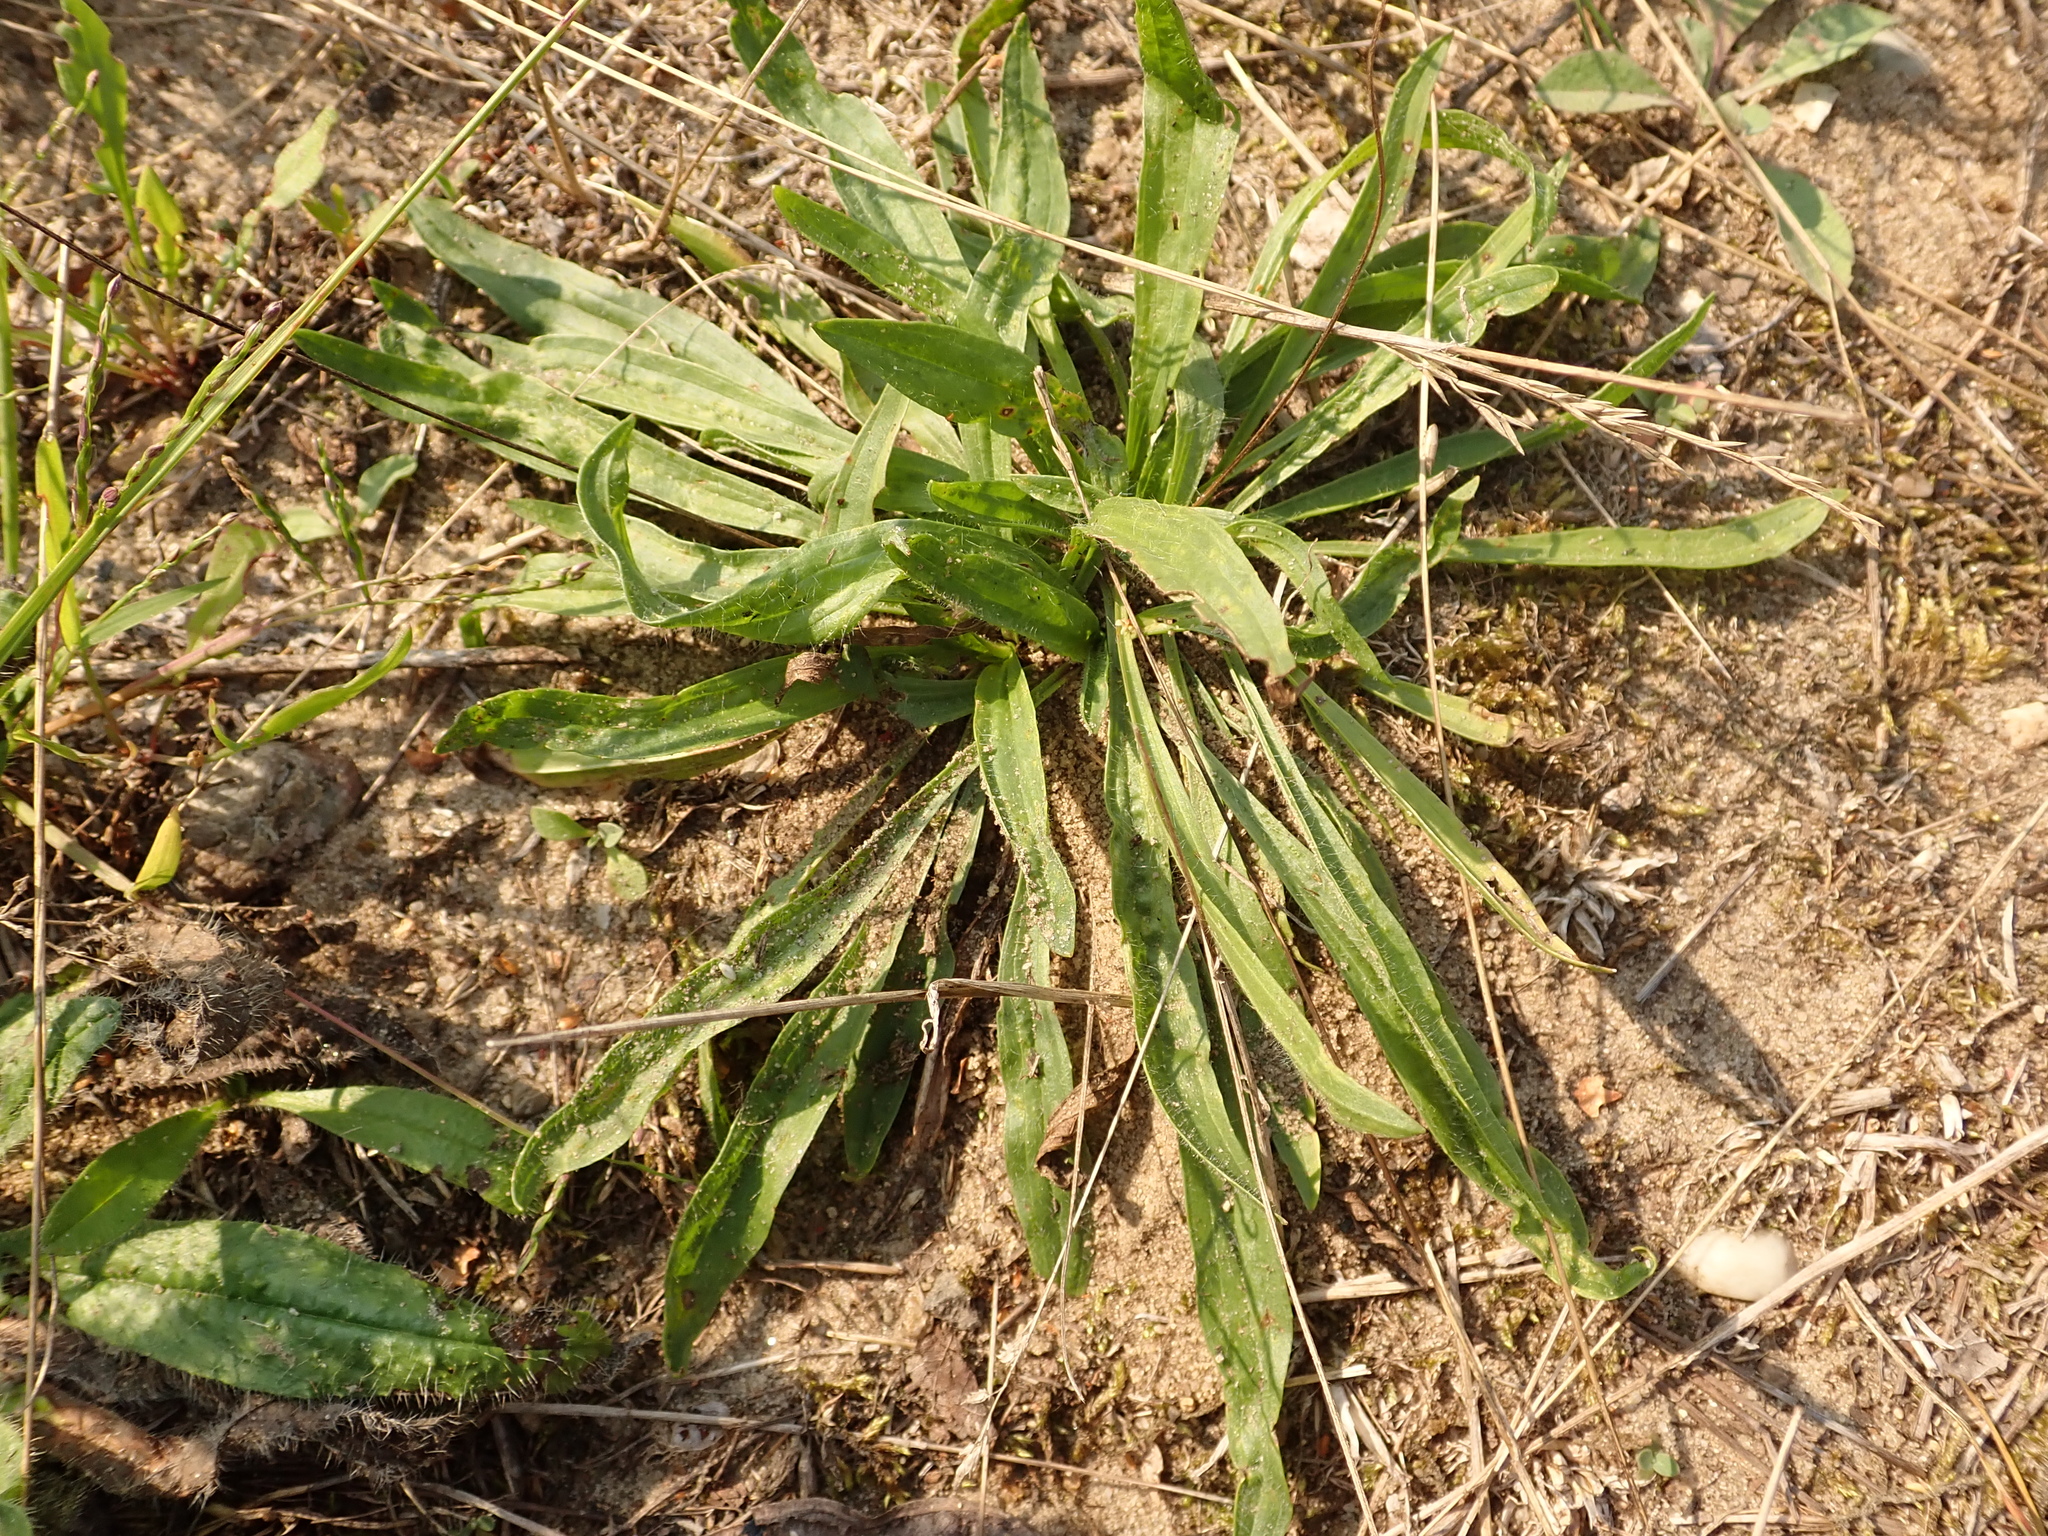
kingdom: Plantae
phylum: Tracheophyta
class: Magnoliopsida
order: Lamiales
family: Plantaginaceae
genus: Plantago
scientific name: Plantago lanceolata
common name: Ribwort plantain
